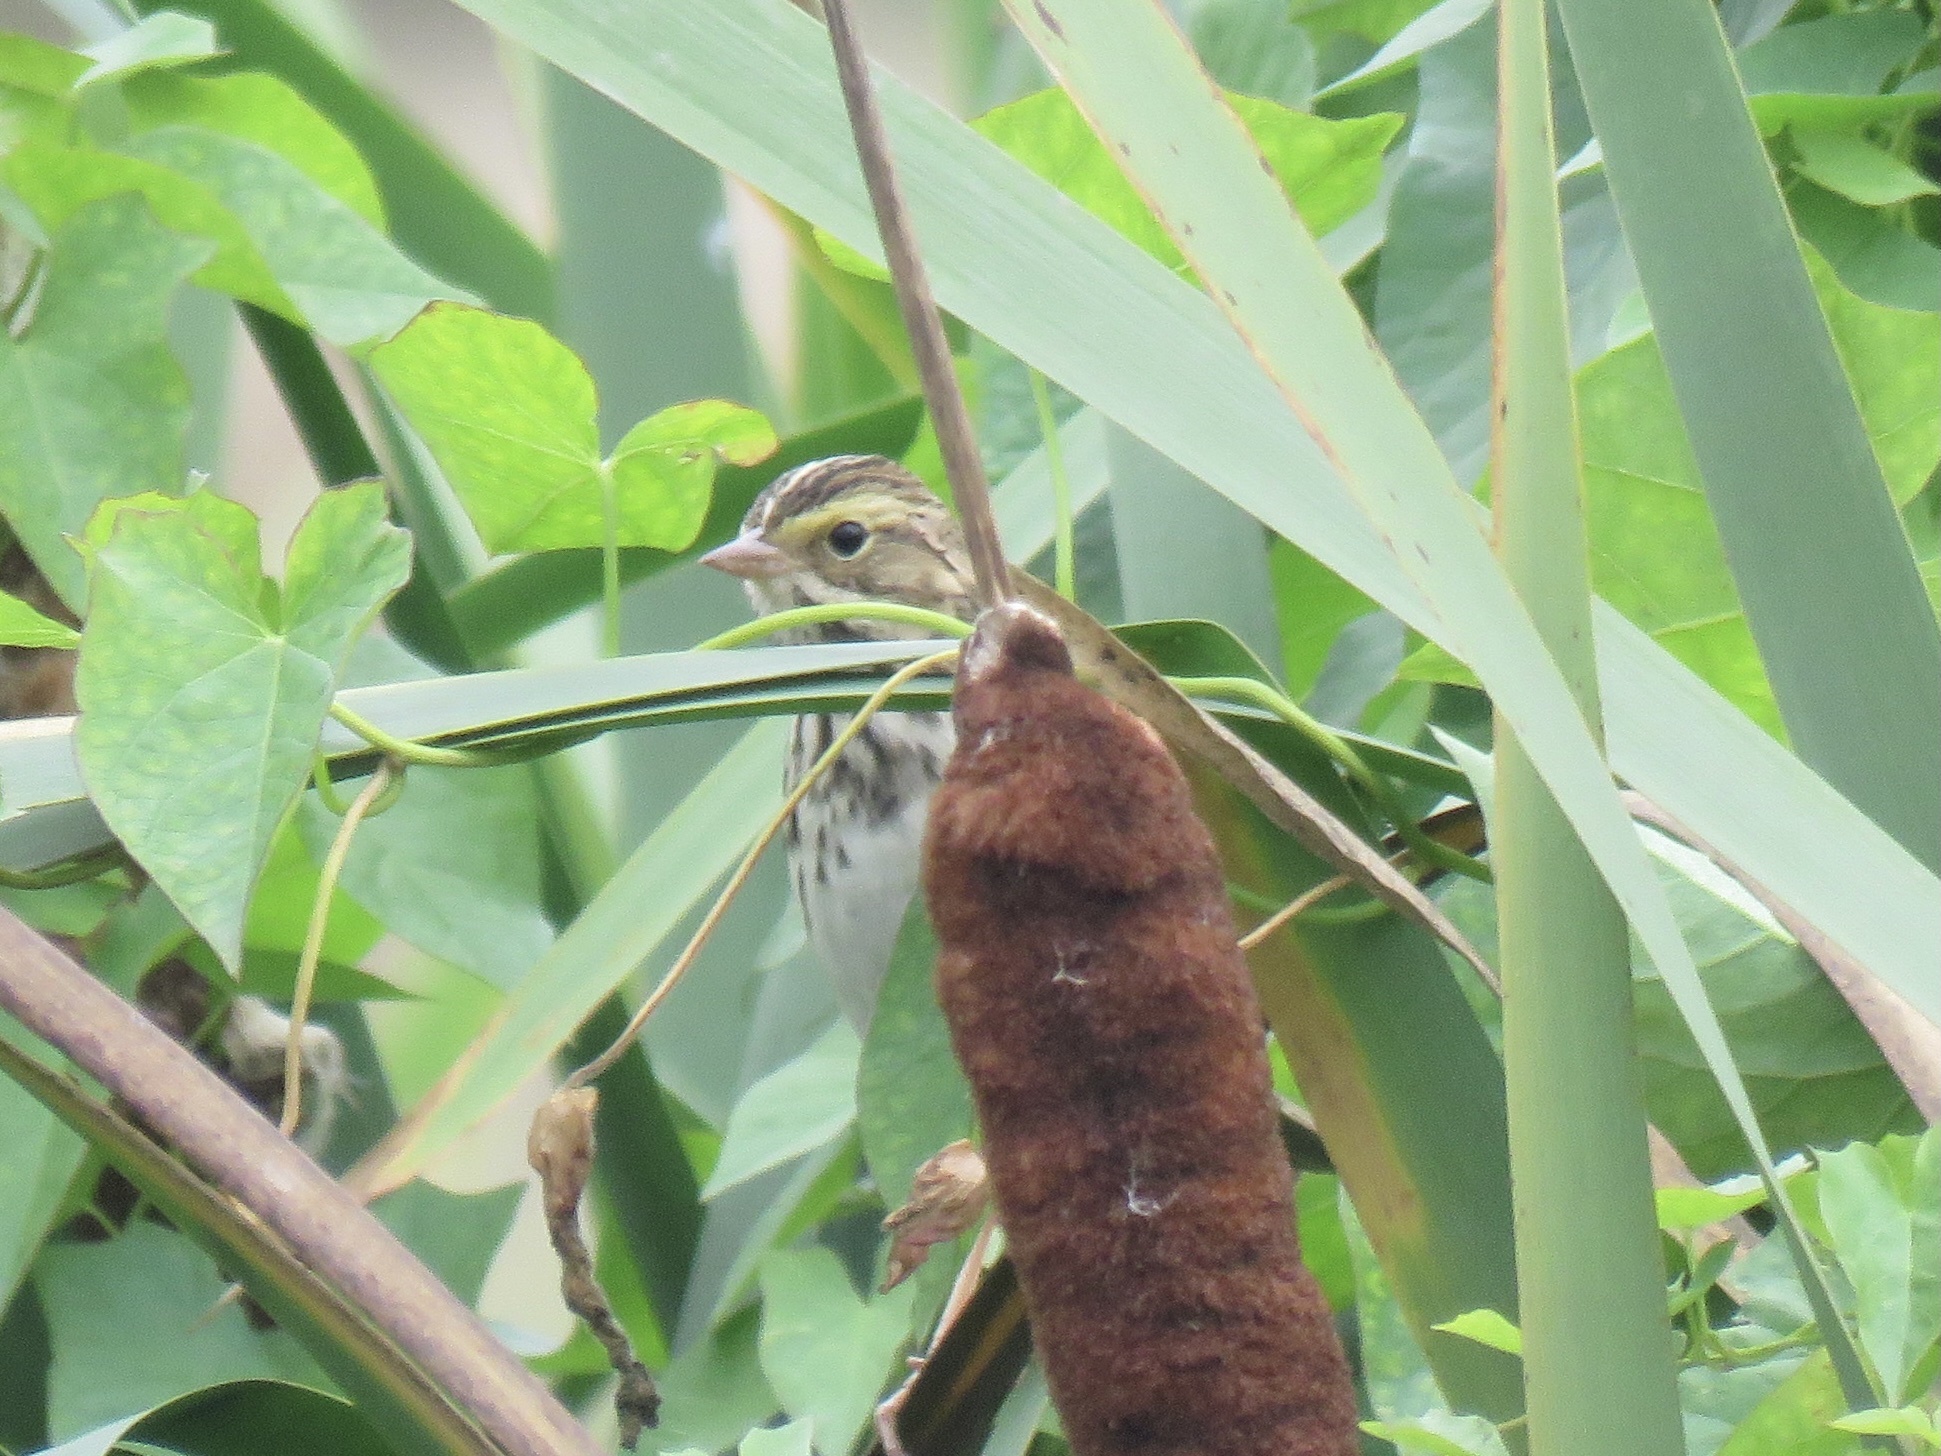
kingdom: Animalia
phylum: Chordata
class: Aves
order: Passeriformes
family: Passerellidae
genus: Passerculus
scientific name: Passerculus sandwichensis
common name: Savannah sparrow
